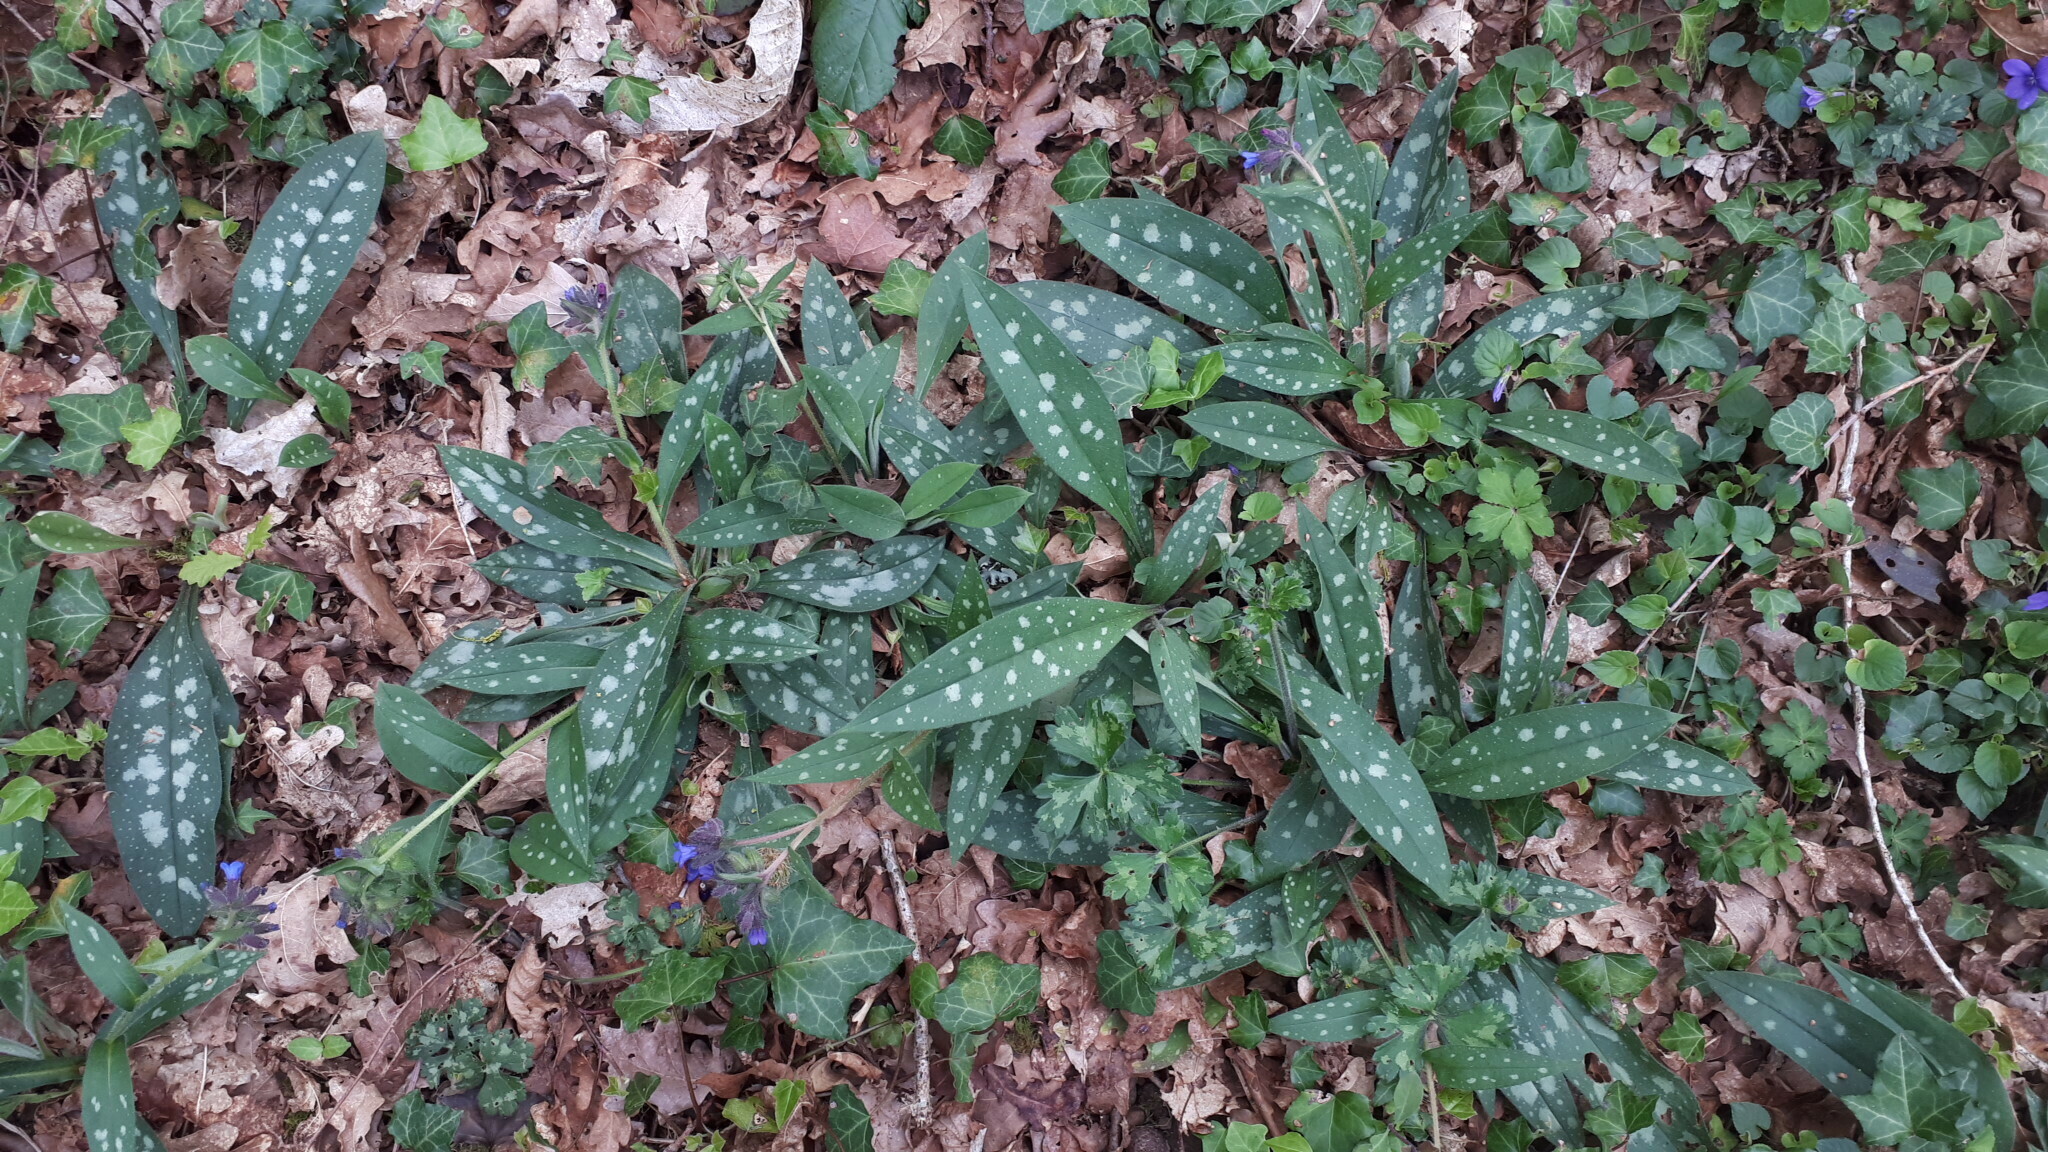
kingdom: Plantae
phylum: Tracheophyta
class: Magnoliopsida
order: Boraginales
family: Boraginaceae
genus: Pulmonaria
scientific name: Pulmonaria longifolia
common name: Narrow-leaved lungwort
